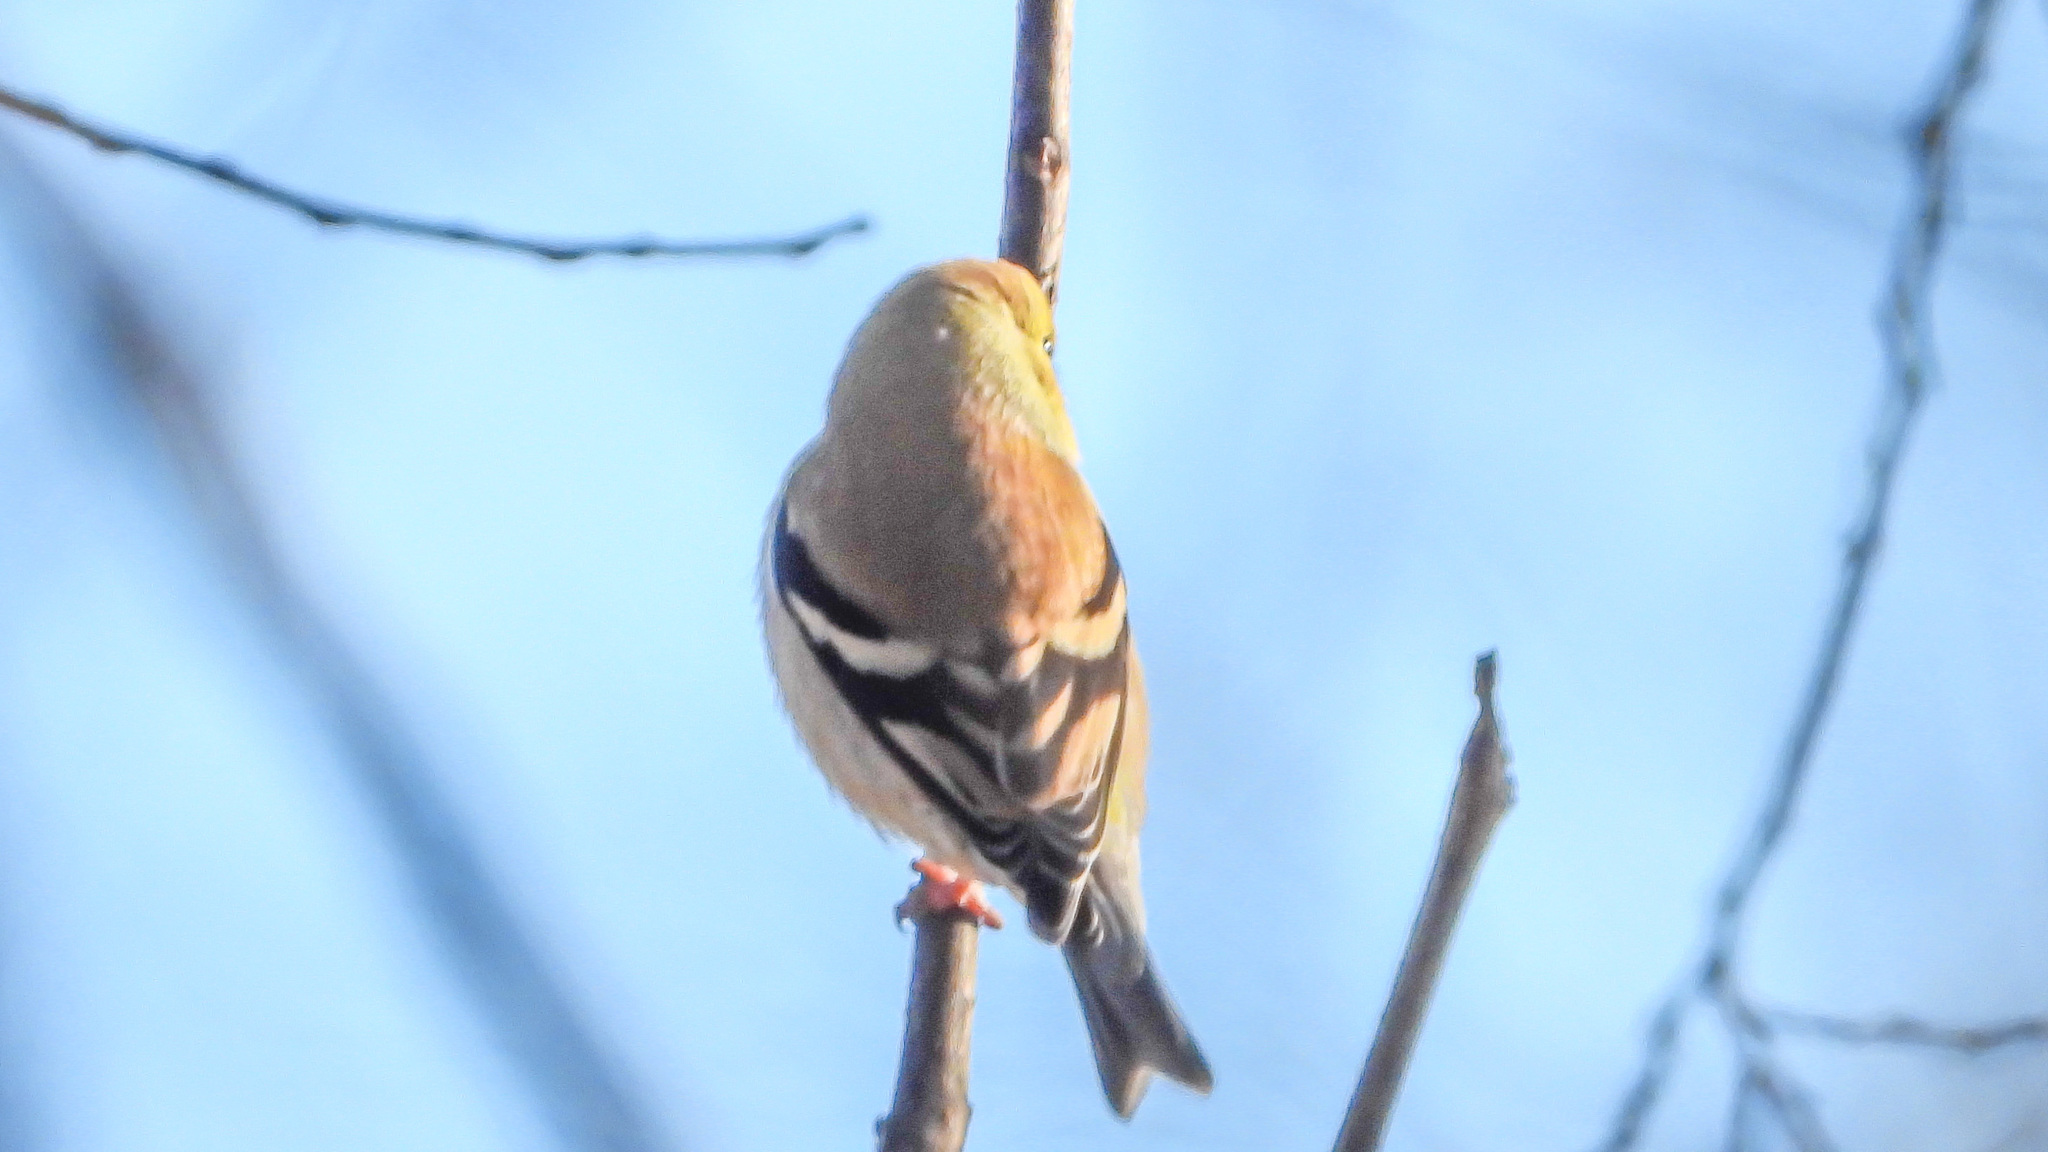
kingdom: Animalia
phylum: Chordata
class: Aves
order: Passeriformes
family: Fringillidae
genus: Spinus
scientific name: Spinus tristis
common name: American goldfinch
